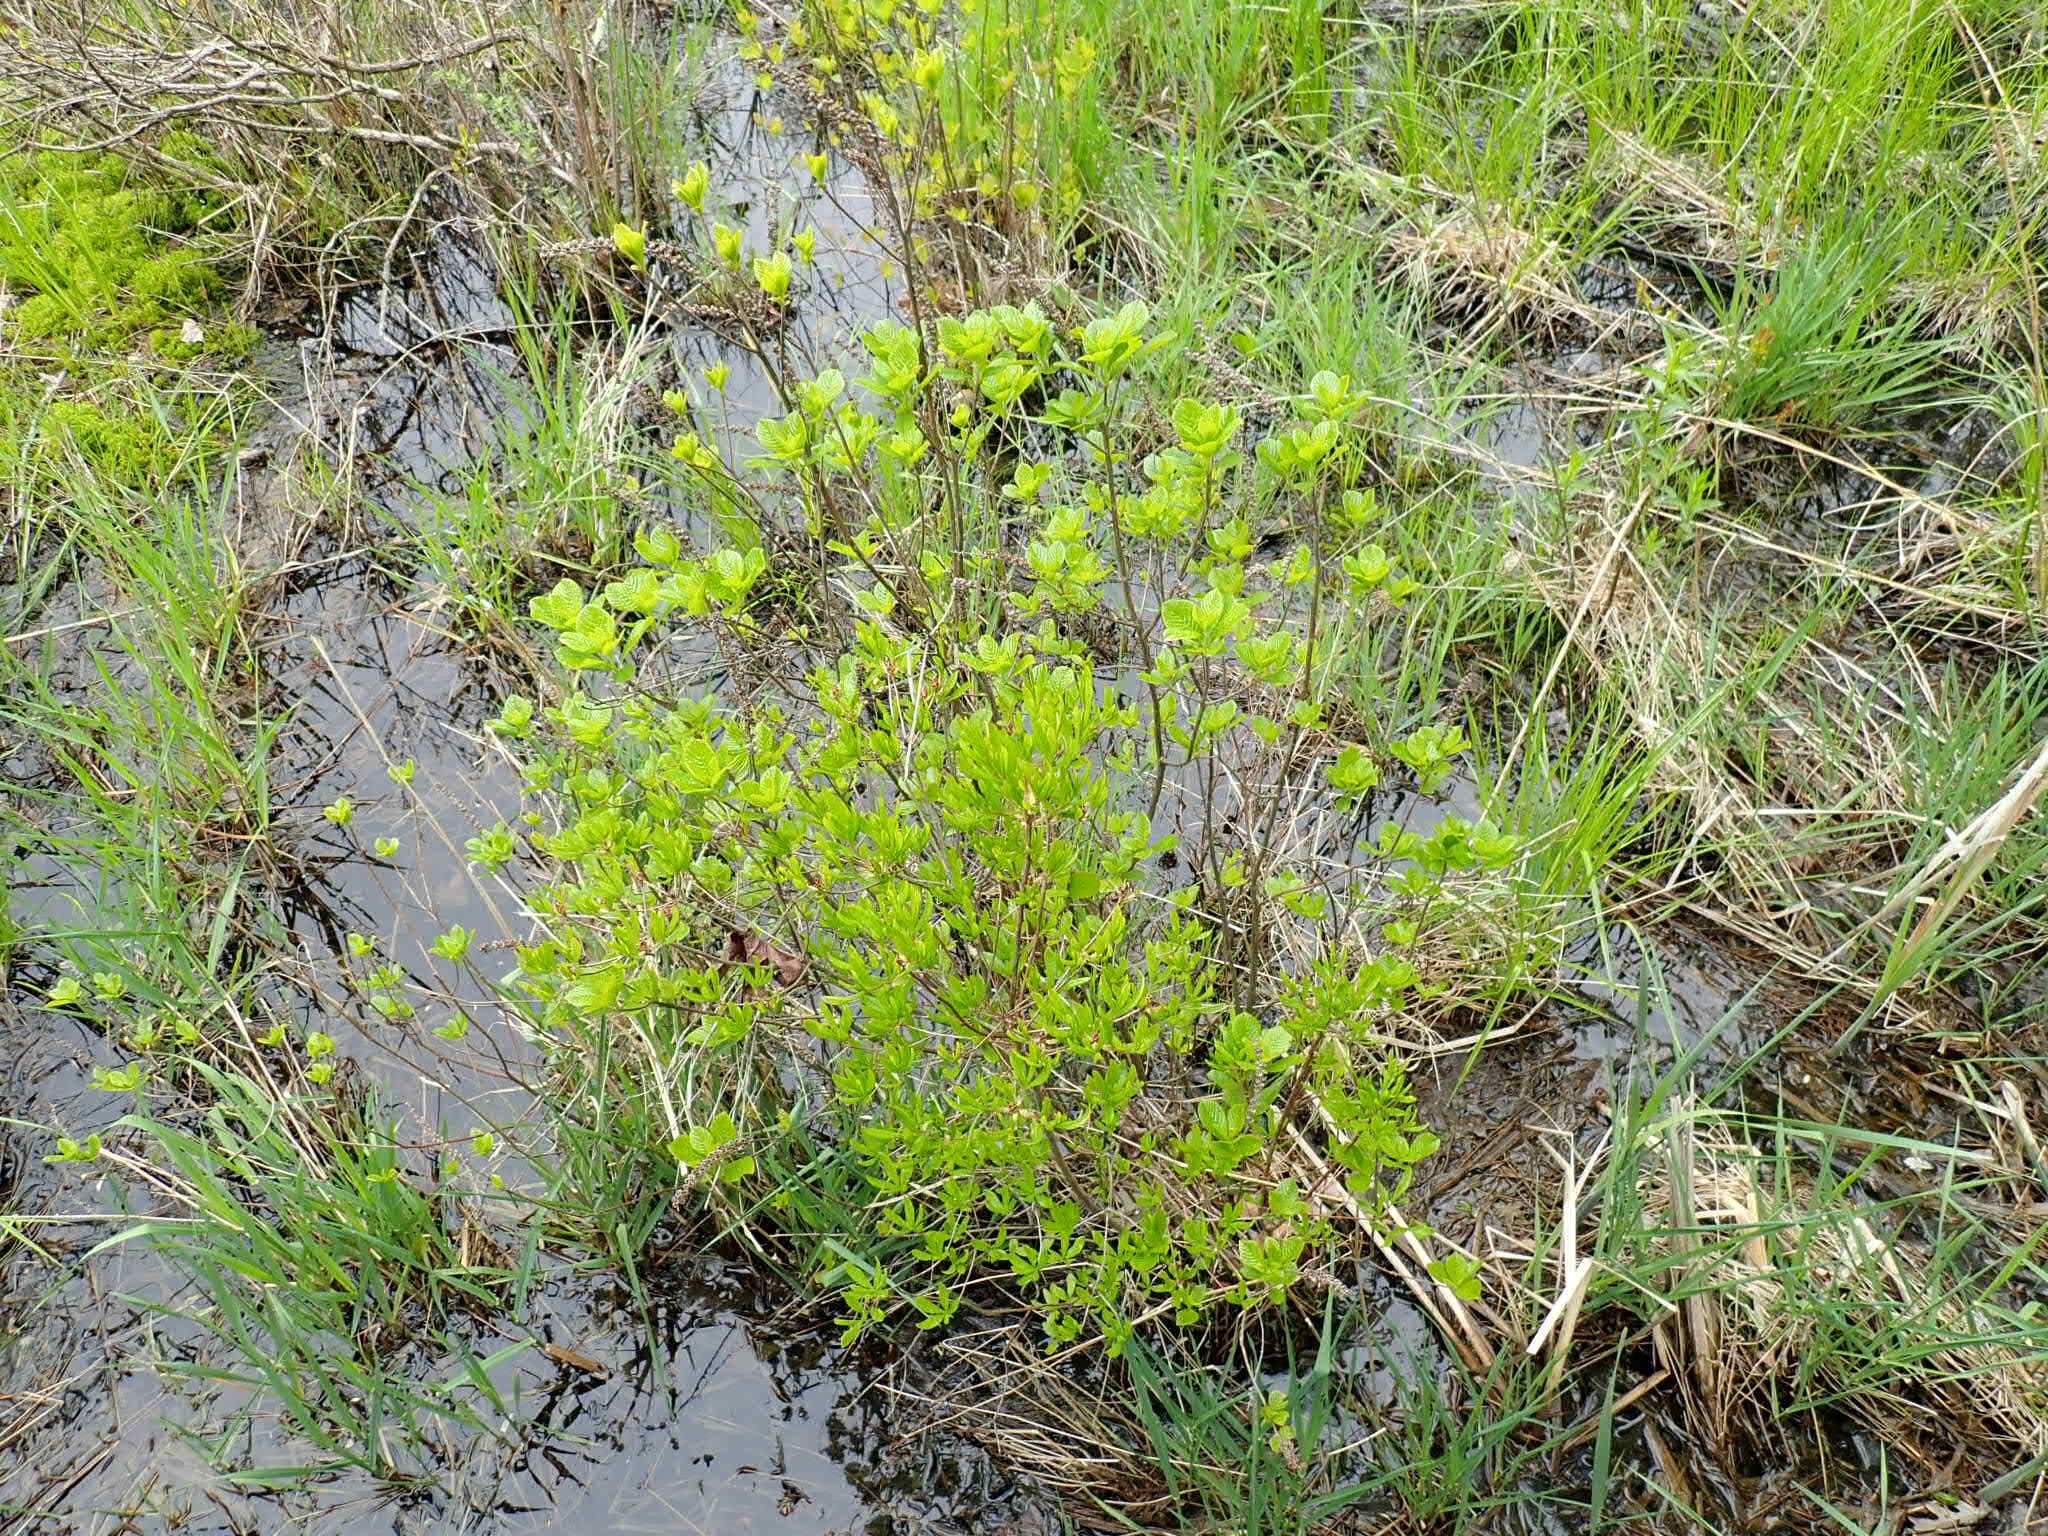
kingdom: Plantae
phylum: Tracheophyta
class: Magnoliopsida
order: Ericales
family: Clethraceae
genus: Clethra
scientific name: Clethra alnifolia
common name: Sweet pepperbush
